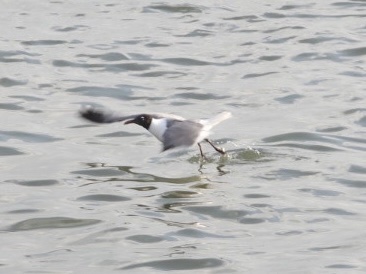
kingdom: Animalia
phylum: Chordata
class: Aves
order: Charadriiformes
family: Laridae
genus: Leucophaeus
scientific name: Leucophaeus atricilla
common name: Laughing gull
